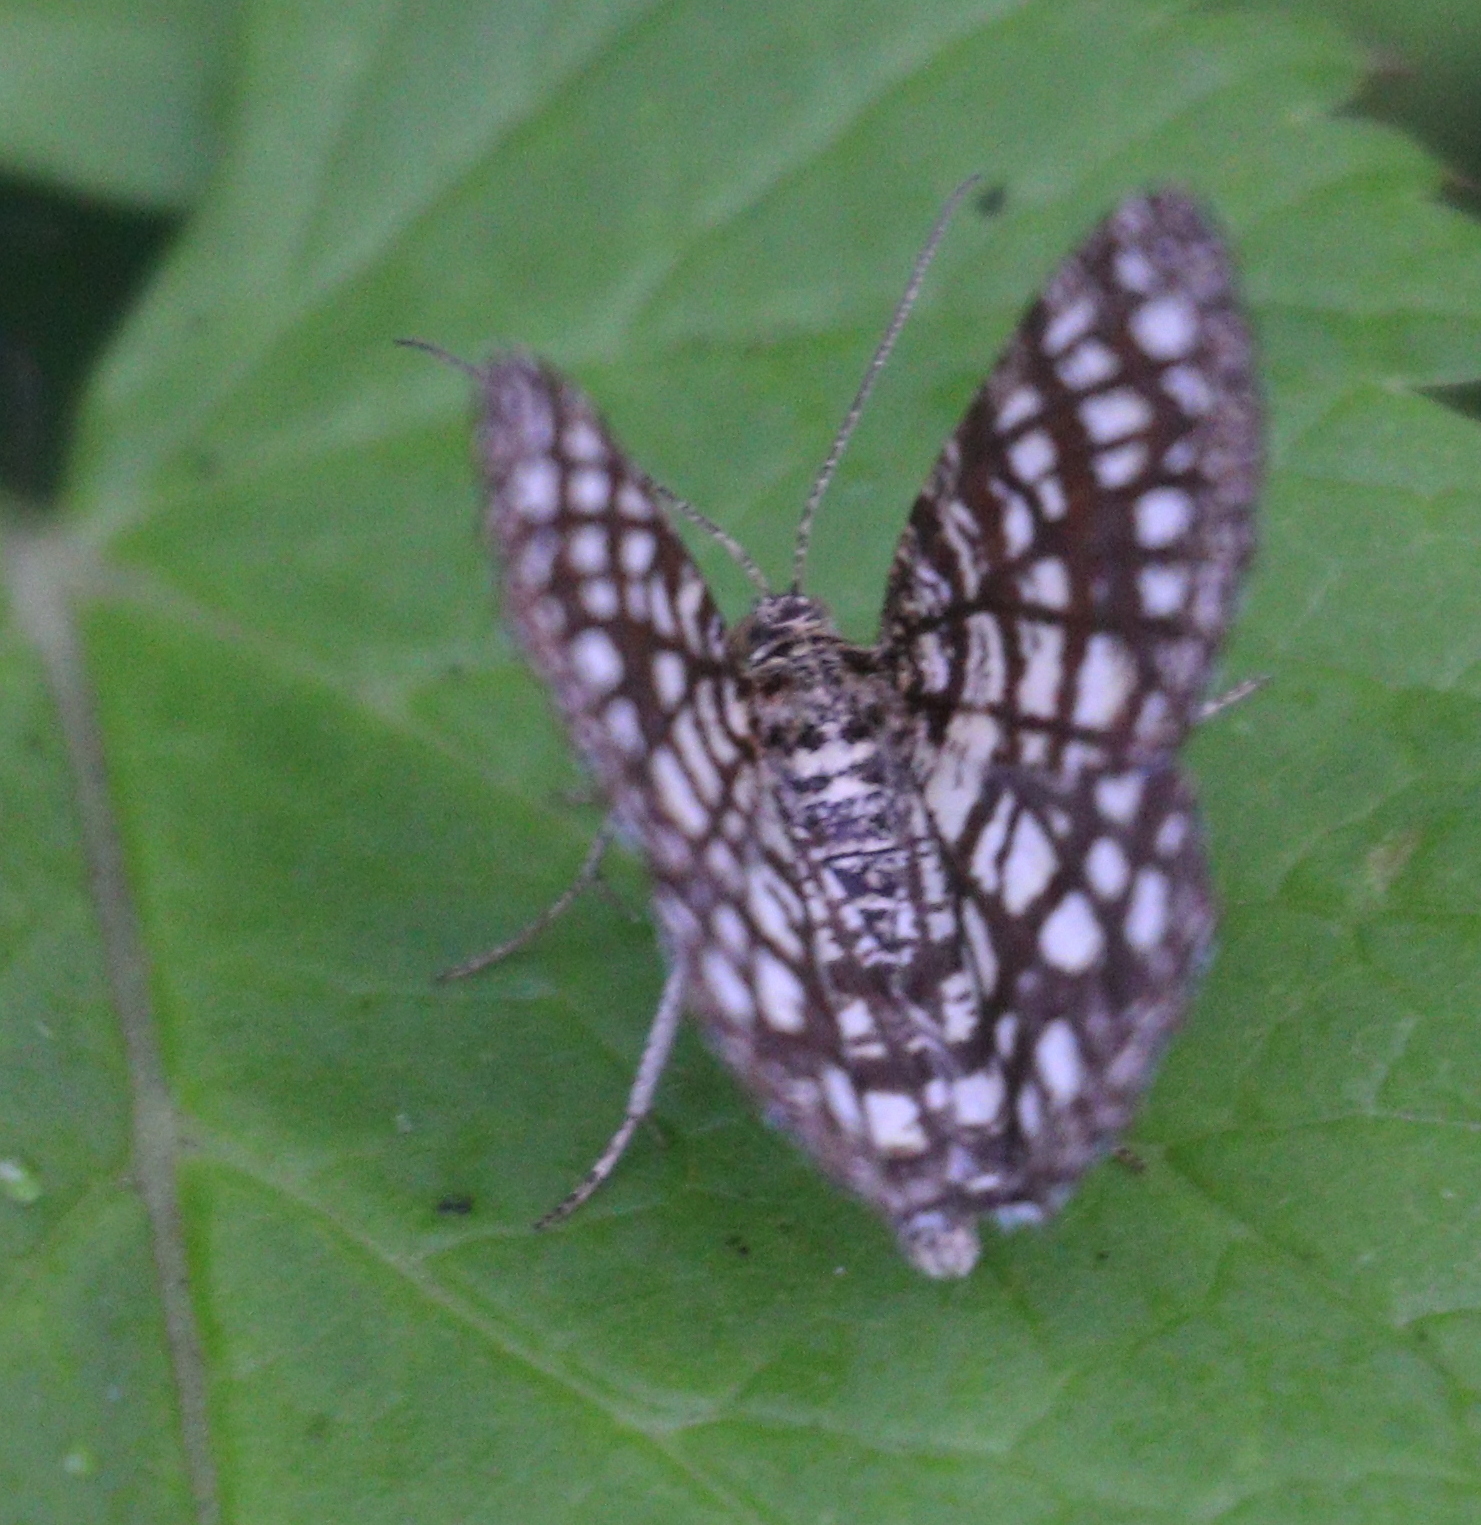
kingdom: Animalia
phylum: Arthropoda
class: Insecta
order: Lepidoptera
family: Geometridae
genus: Chiasmia
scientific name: Chiasmia clathrata
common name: Latticed heath
